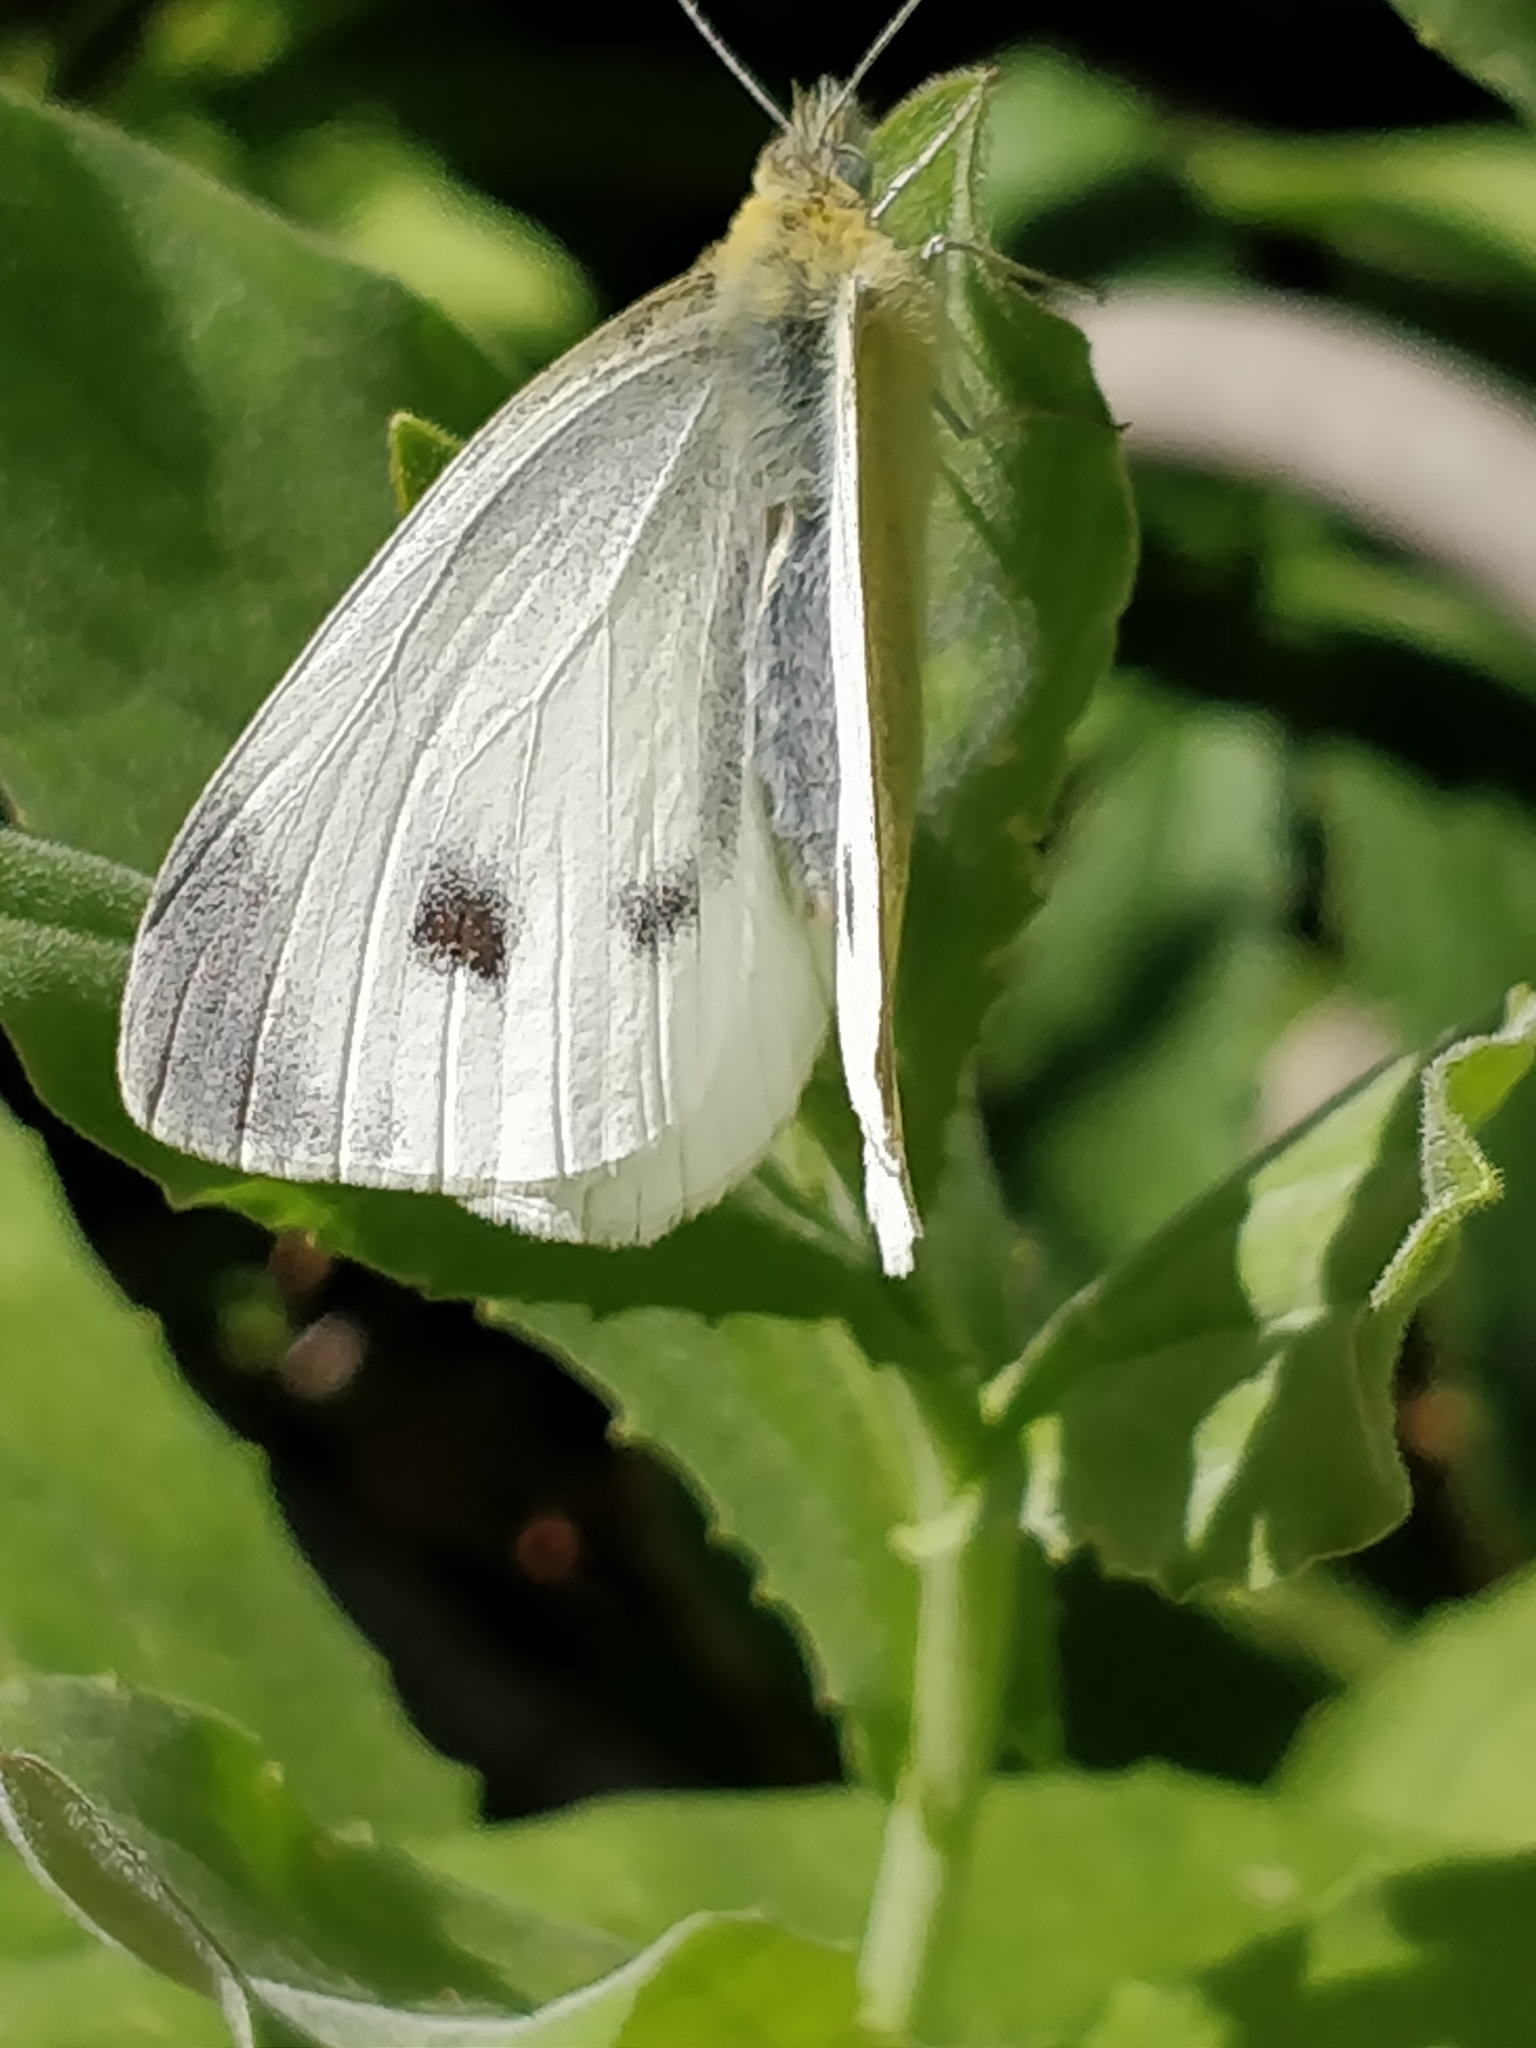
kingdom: Animalia
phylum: Arthropoda
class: Insecta
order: Lepidoptera
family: Pieridae
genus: Pieris
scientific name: Pieris mannii
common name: Southern small white
